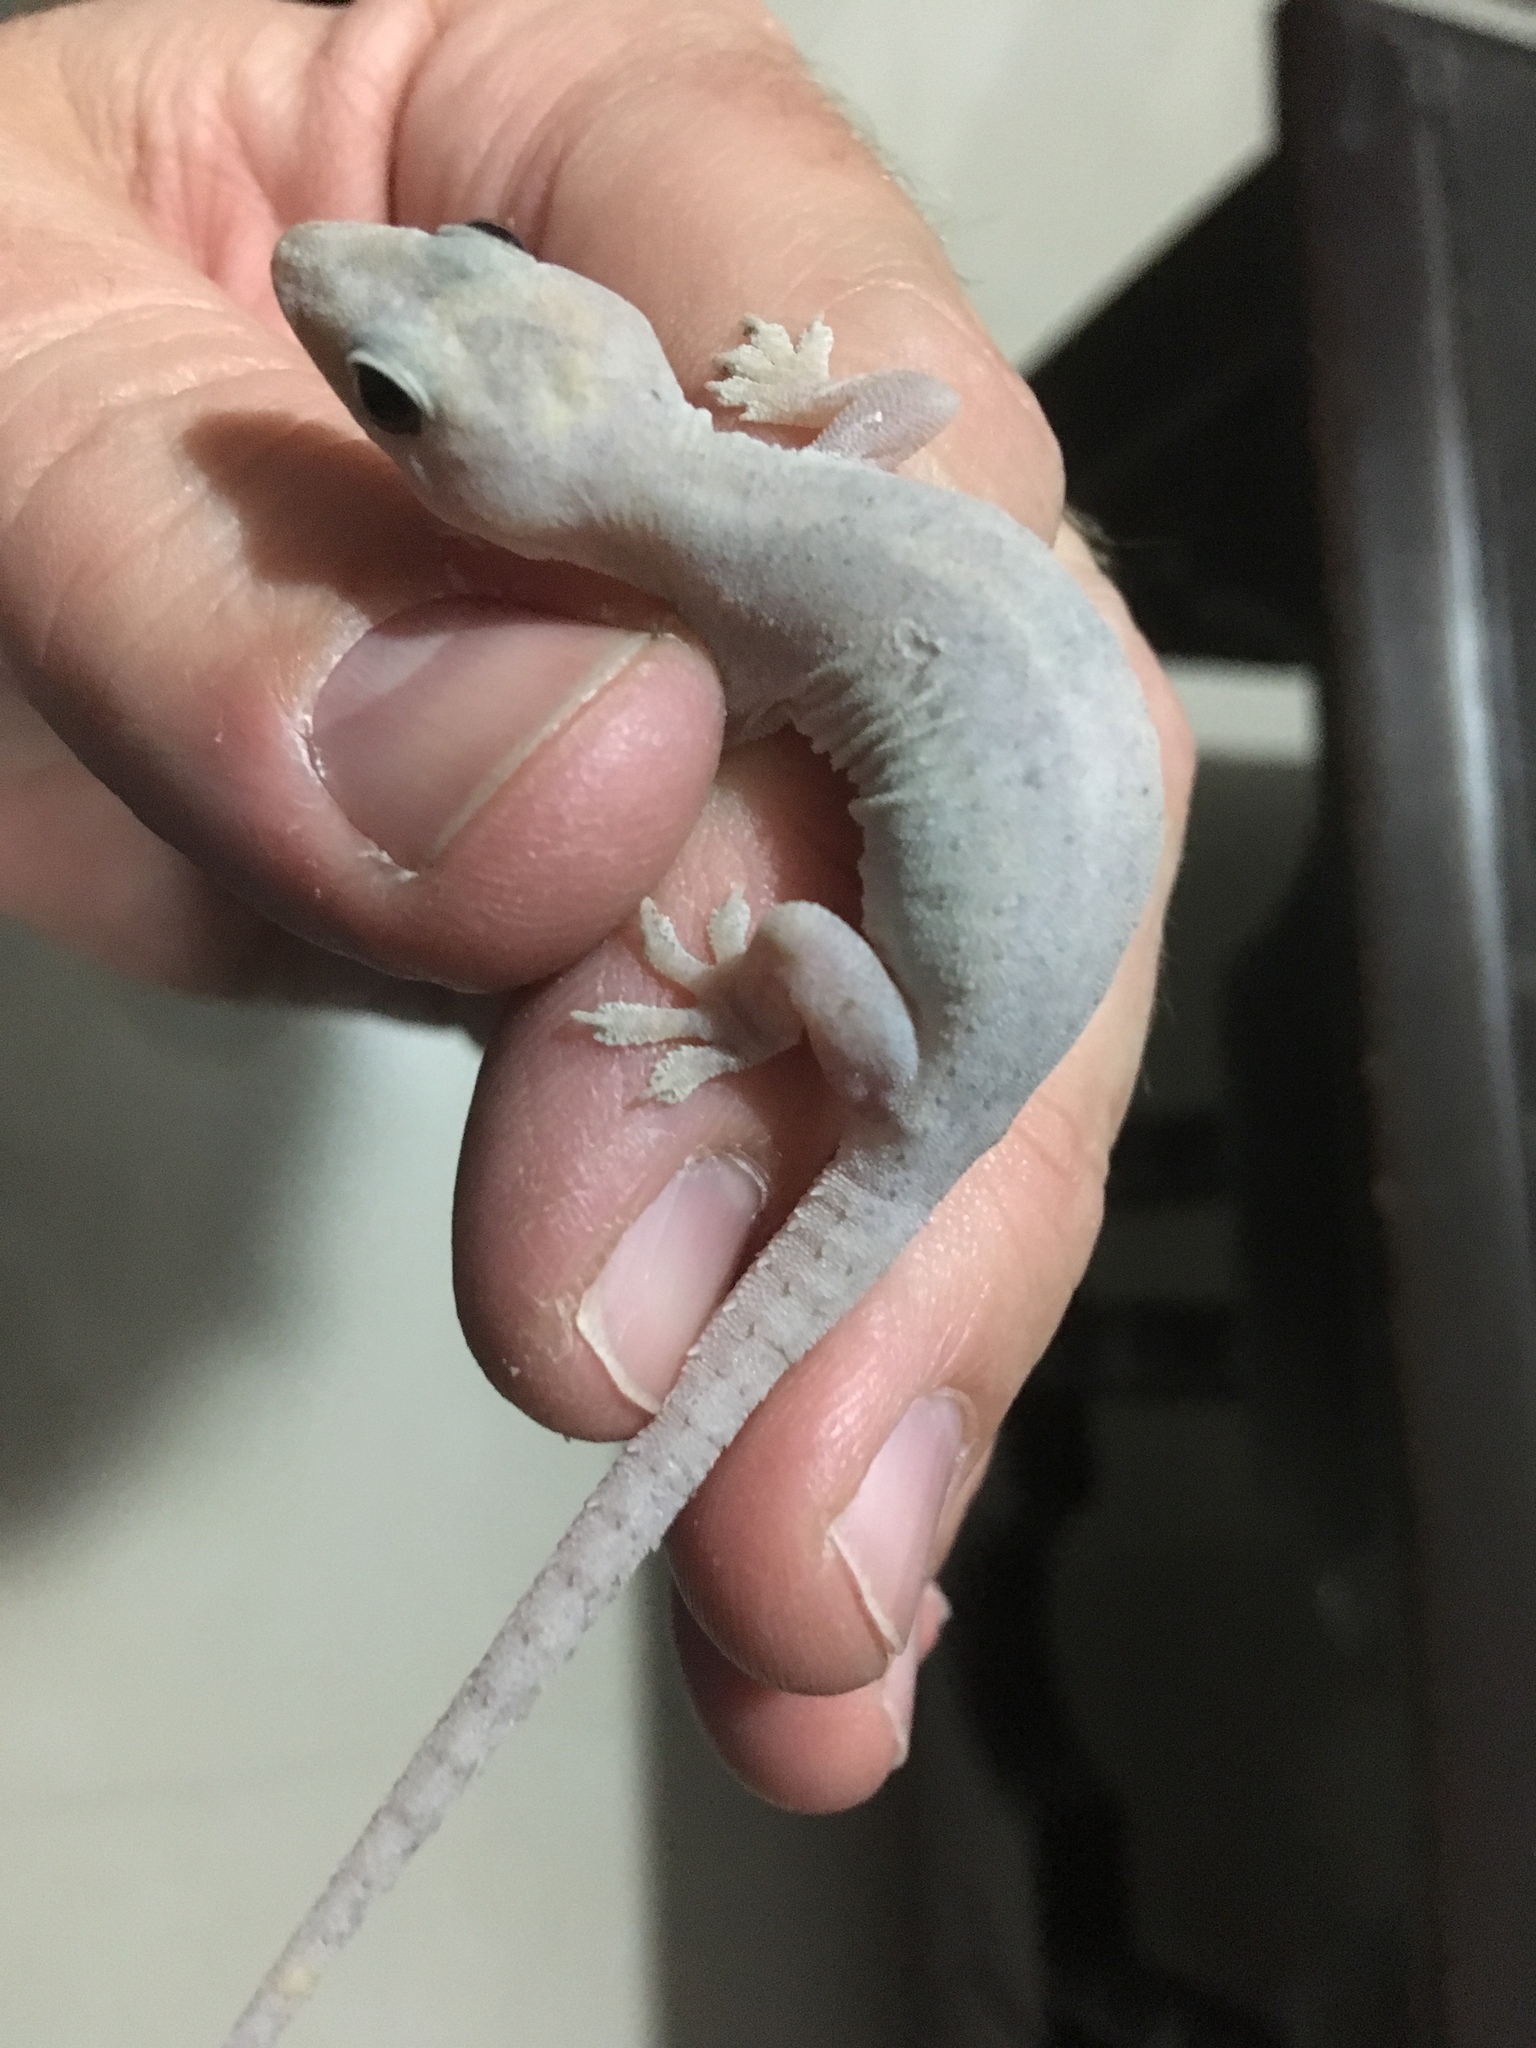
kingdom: Animalia
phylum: Chordata
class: Squamata
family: Gekkonidae
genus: Hemidactylus
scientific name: Hemidactylus frenatus
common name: Common house gecko
